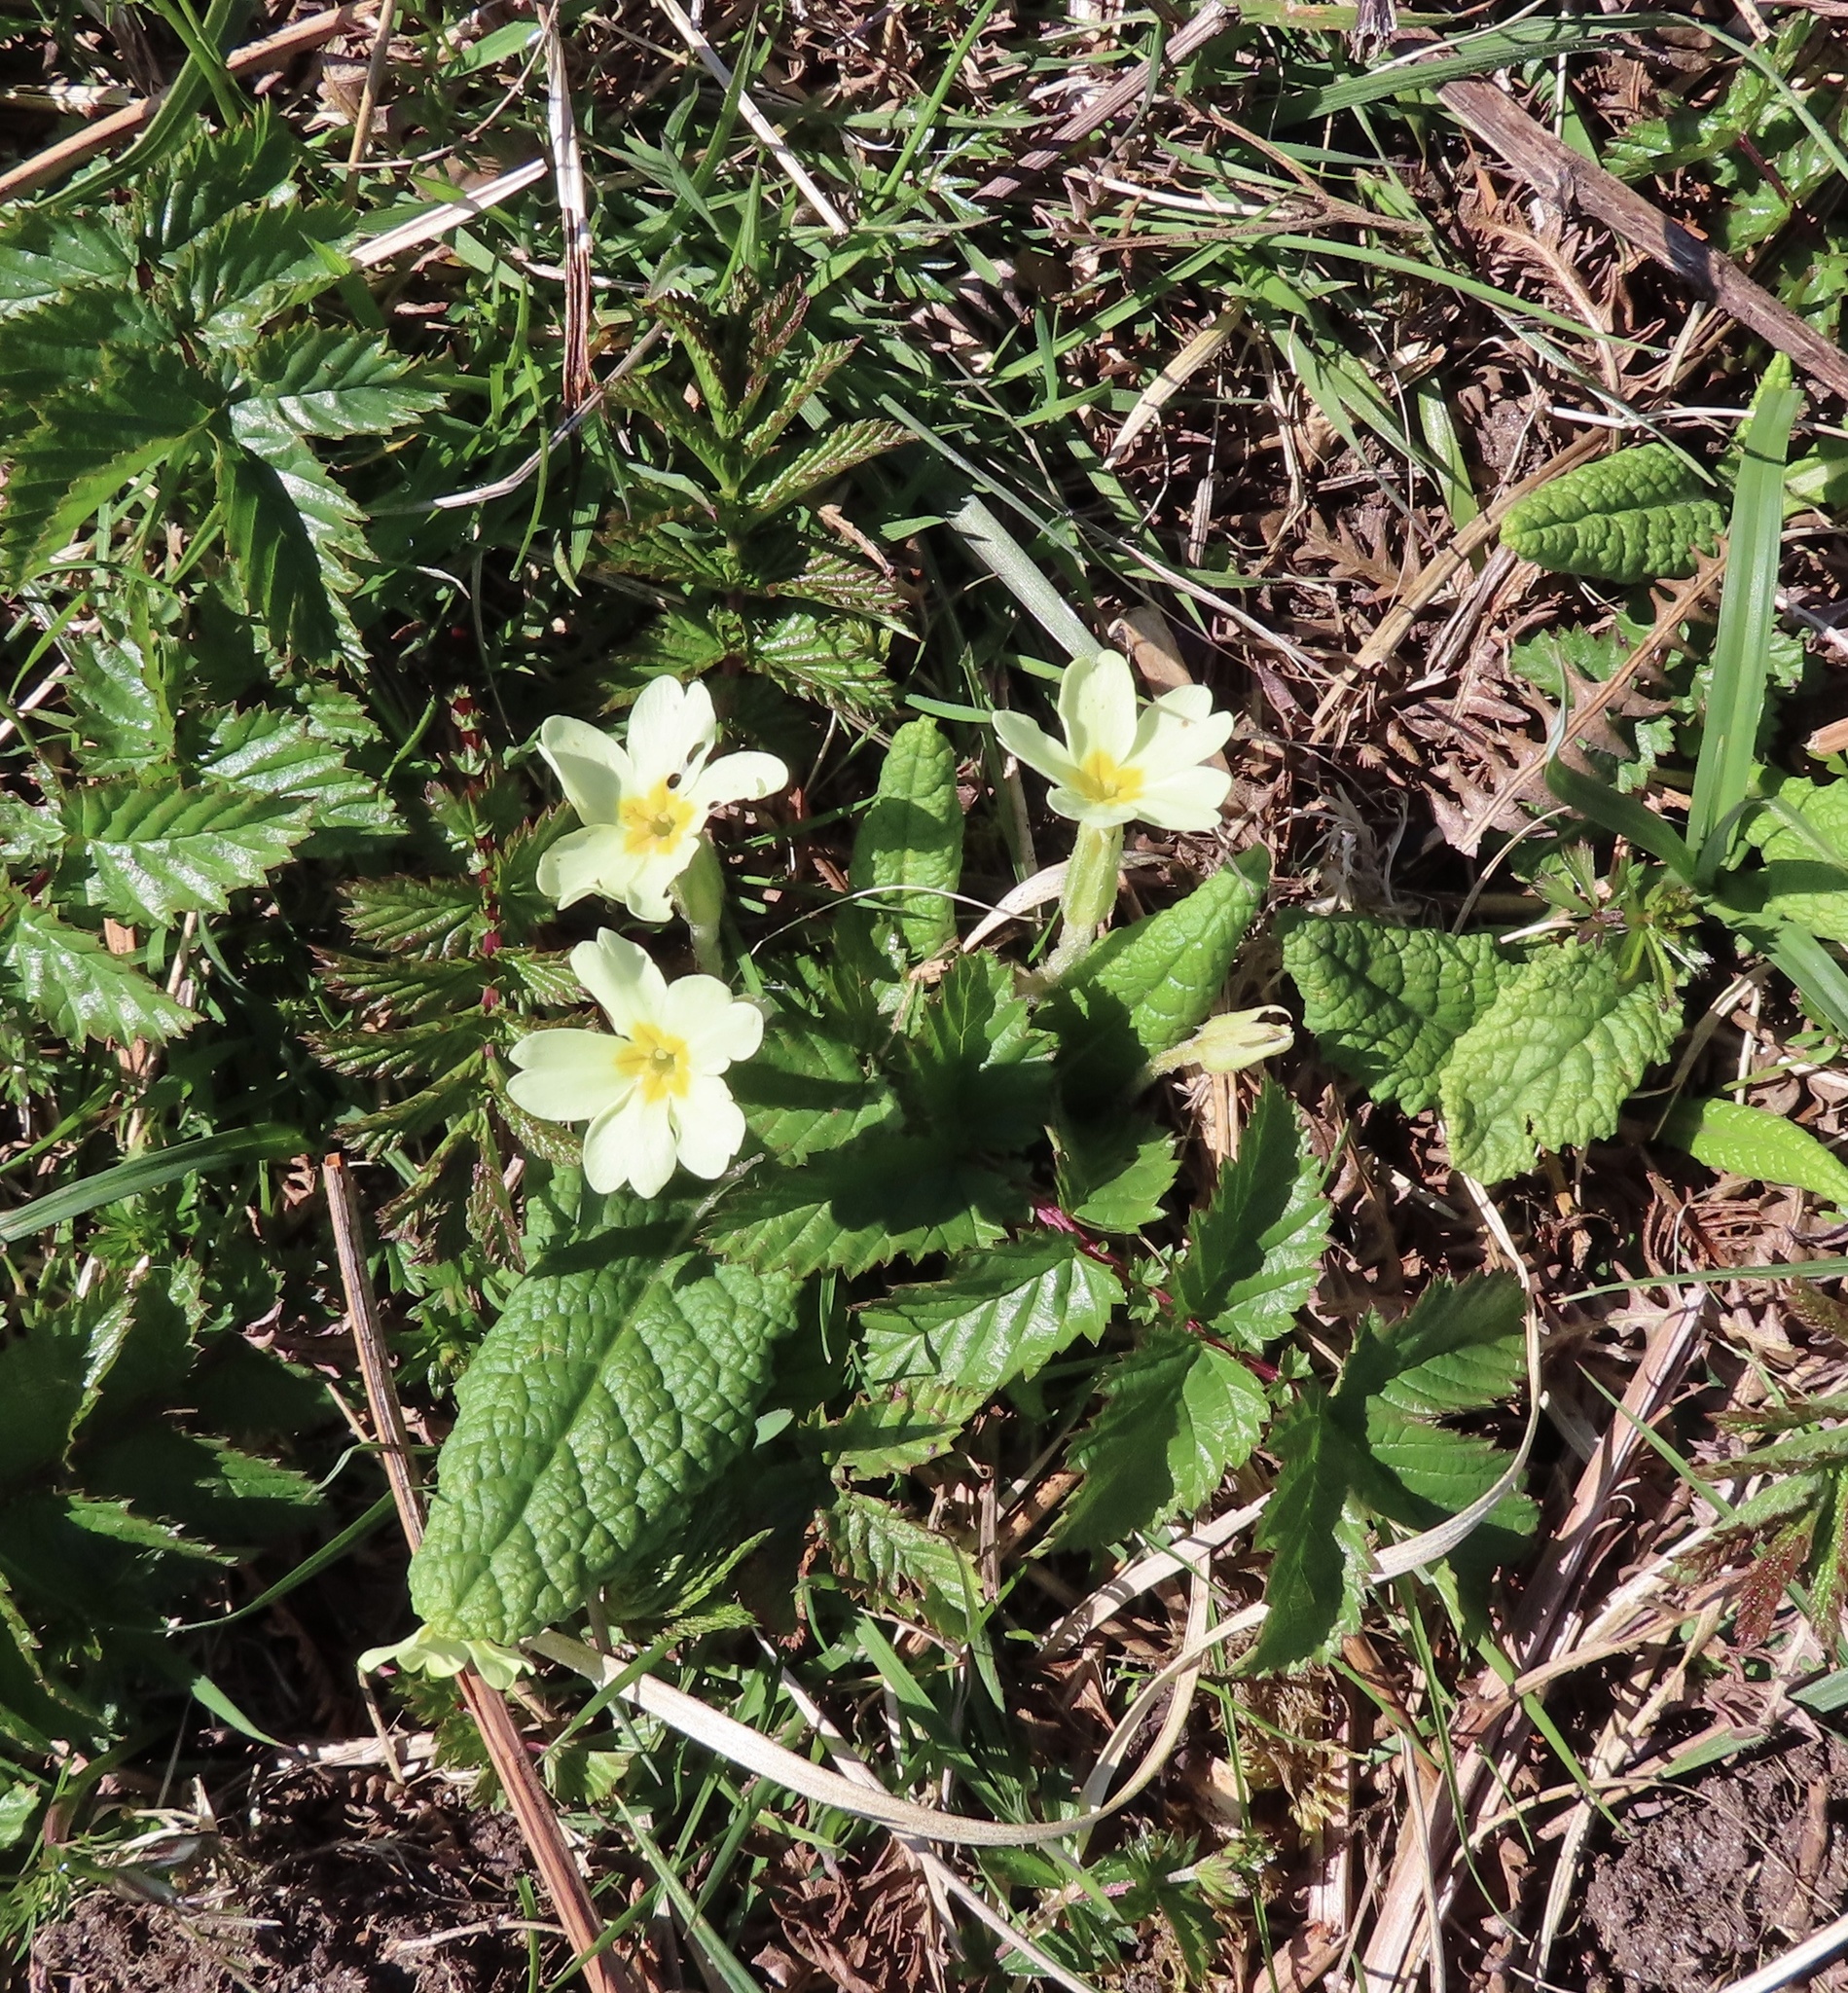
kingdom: Plantae
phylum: Tracheophyta
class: Magnoliopsida
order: Ericales
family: Primulaceae
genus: Primula
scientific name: Primula vulgaris
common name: Primrose
